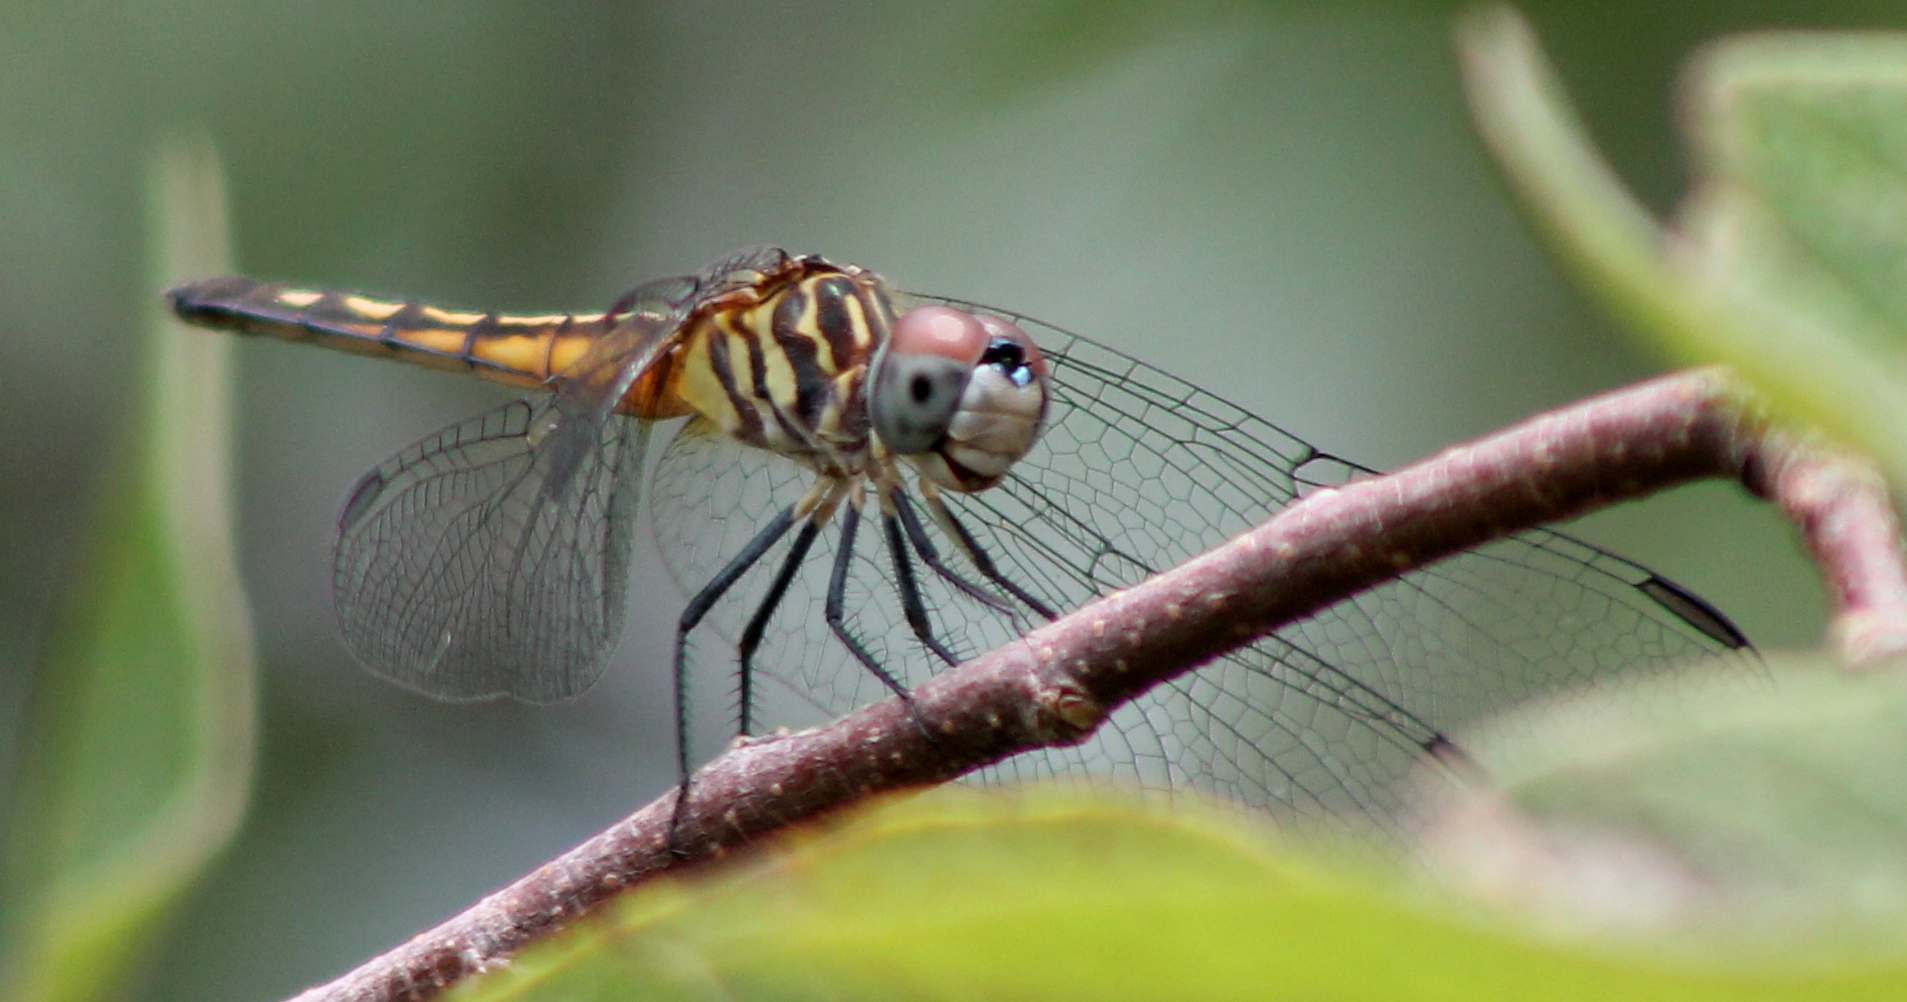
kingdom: Animalia
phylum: Arthropoda
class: Insecta
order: Odonata
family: Libellulidae
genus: Pachydiplax
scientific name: Pachydiplax longipennis
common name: Blue dasher
